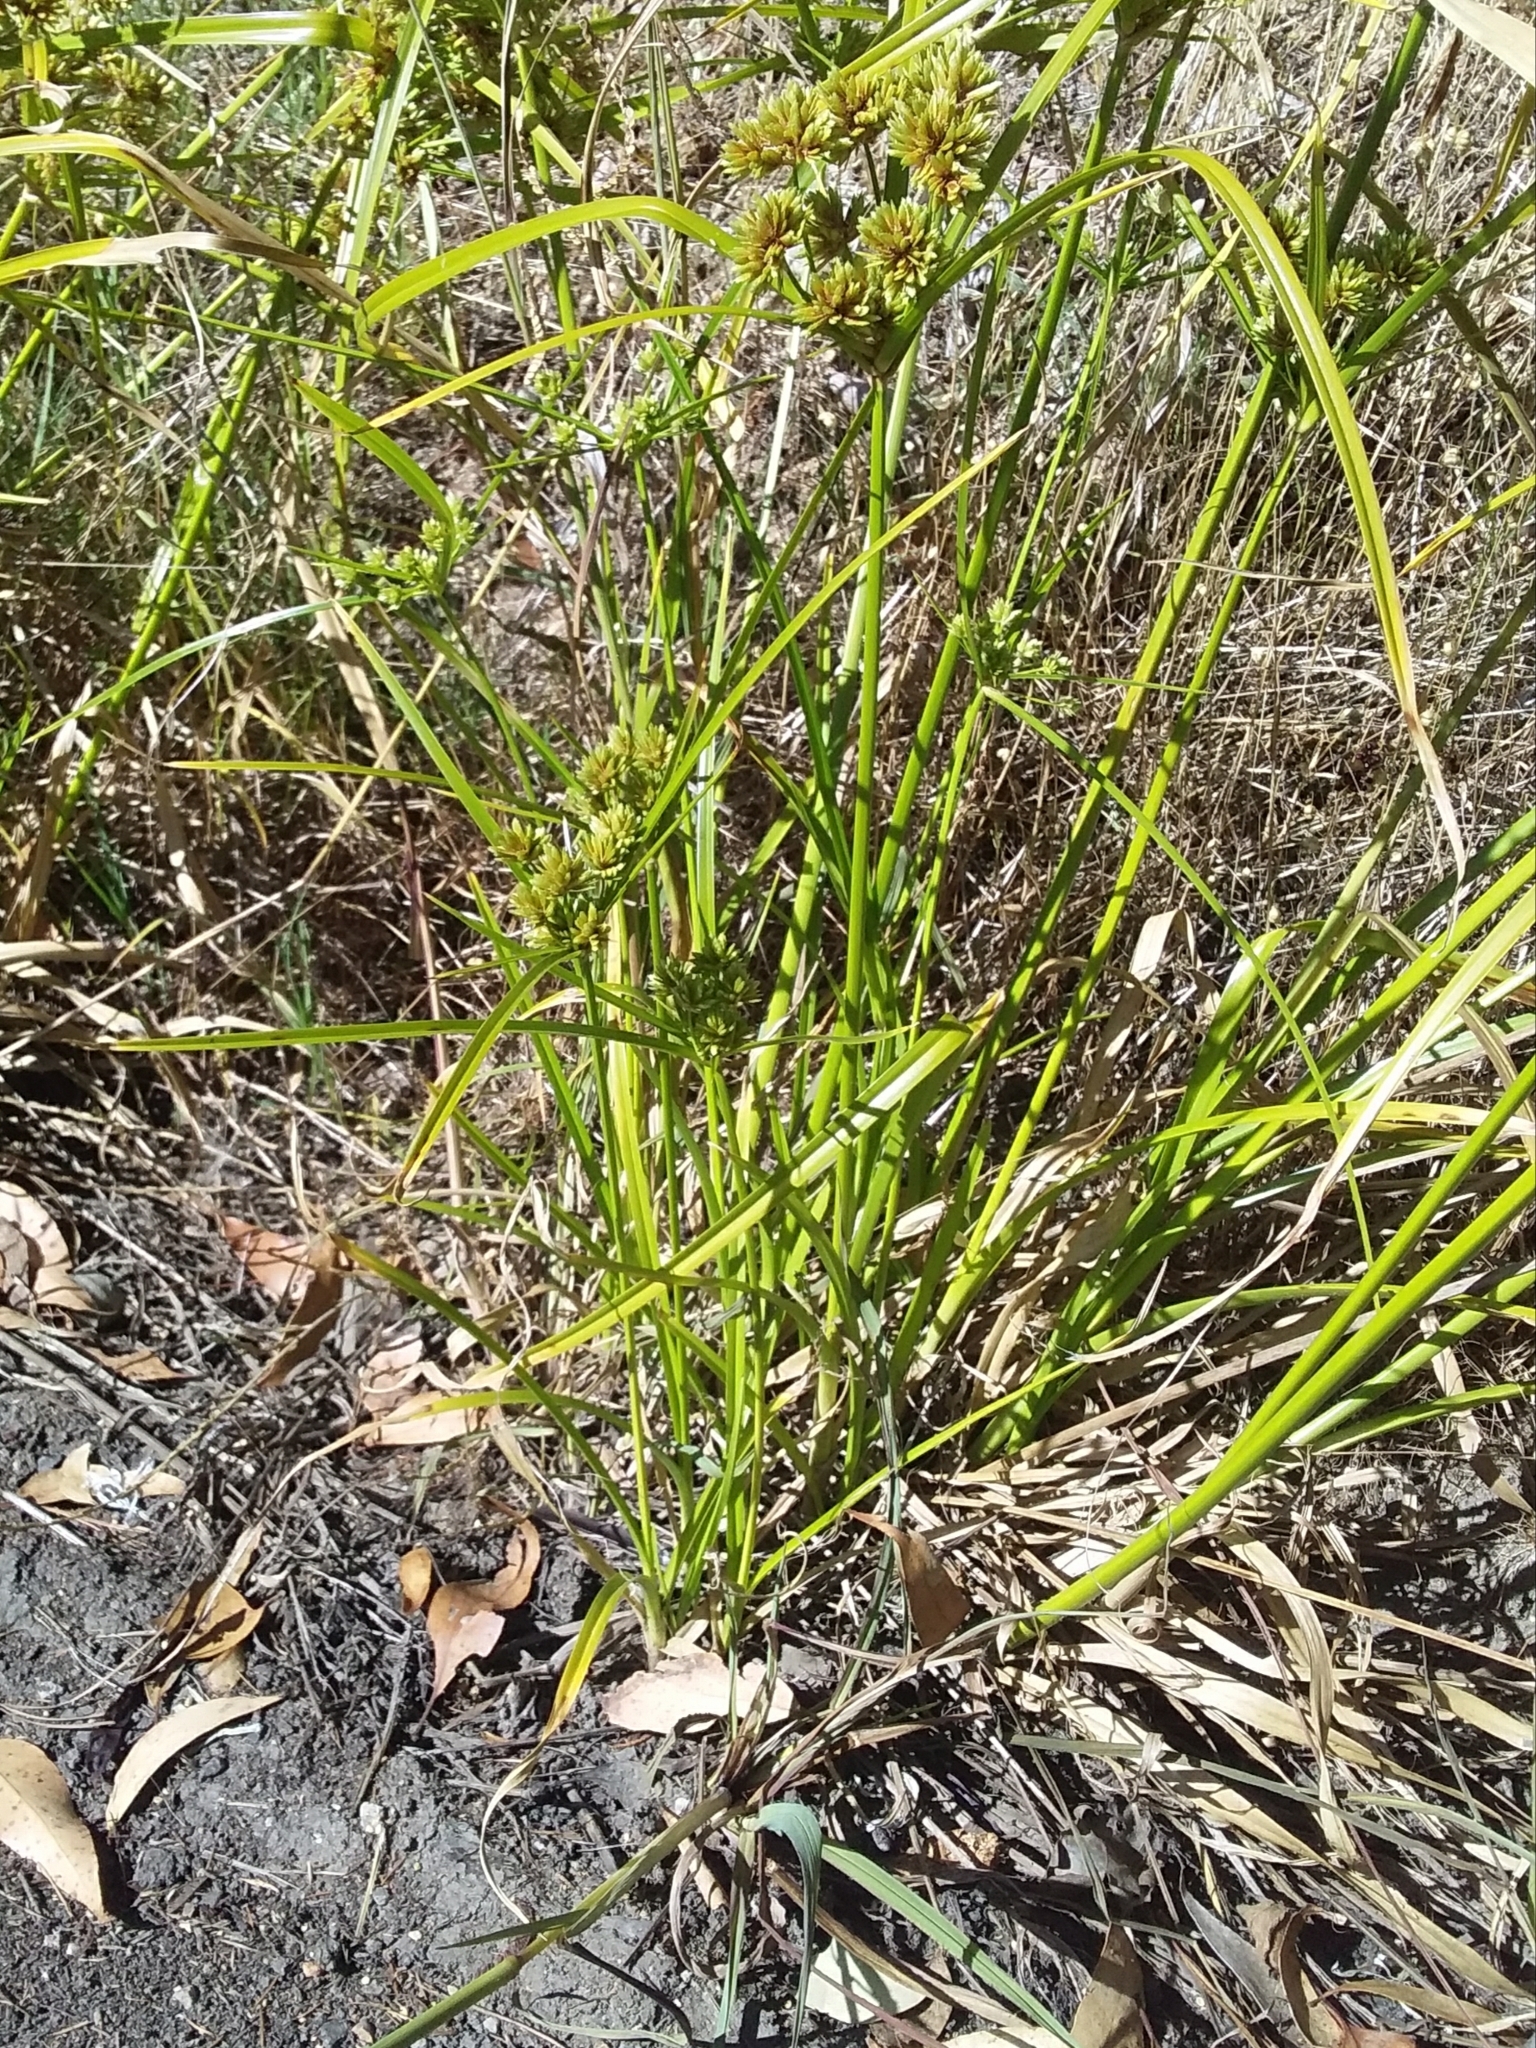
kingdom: Plantae
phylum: Tracheophyta
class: Liliopsida
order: Poales
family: Cyperaceae
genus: Cyperus
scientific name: Cyperus eragrostis
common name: Tall flatsedge
